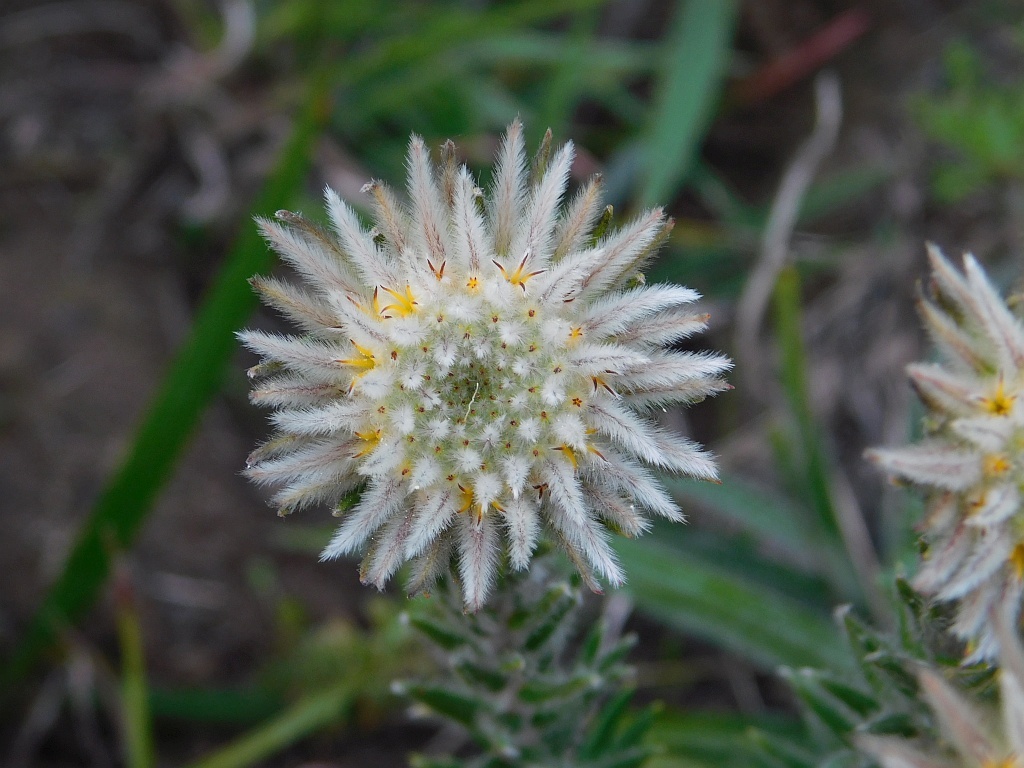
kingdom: Plantae
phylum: Tracheophyta
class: Magnoliopsida
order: Rosales
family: Rhamnaceae
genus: Phylica
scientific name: Phylica calcarata
